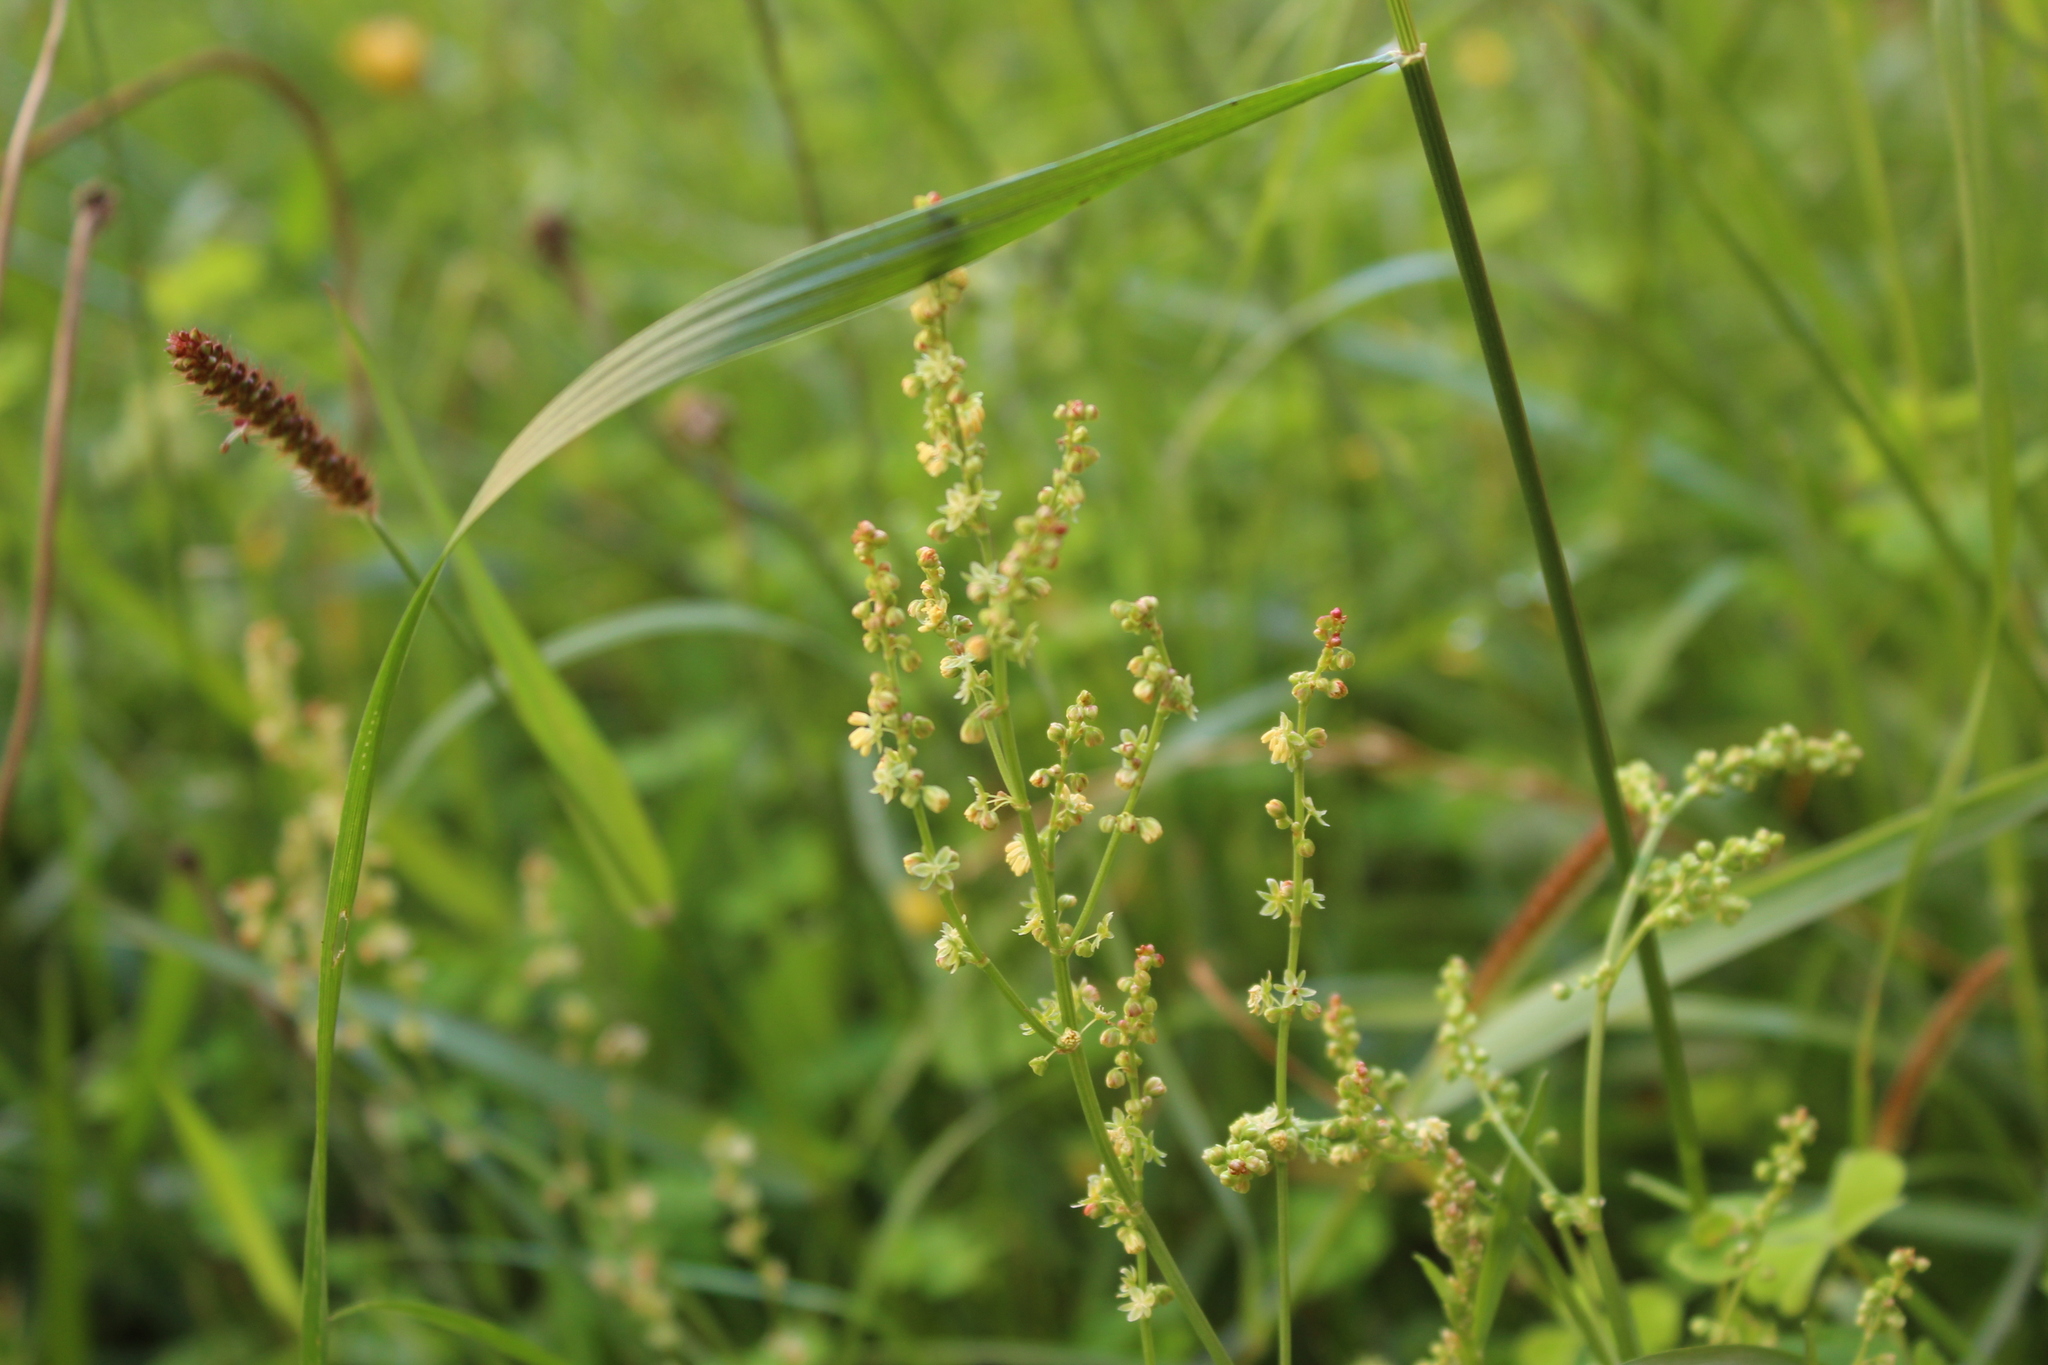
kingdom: Plantae
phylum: Tracheophyta
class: Magnoliopsida
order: Caryophyllales
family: Polygonaceae
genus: Rumex
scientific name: Rumex acetosella
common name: Common sheep sorrel
